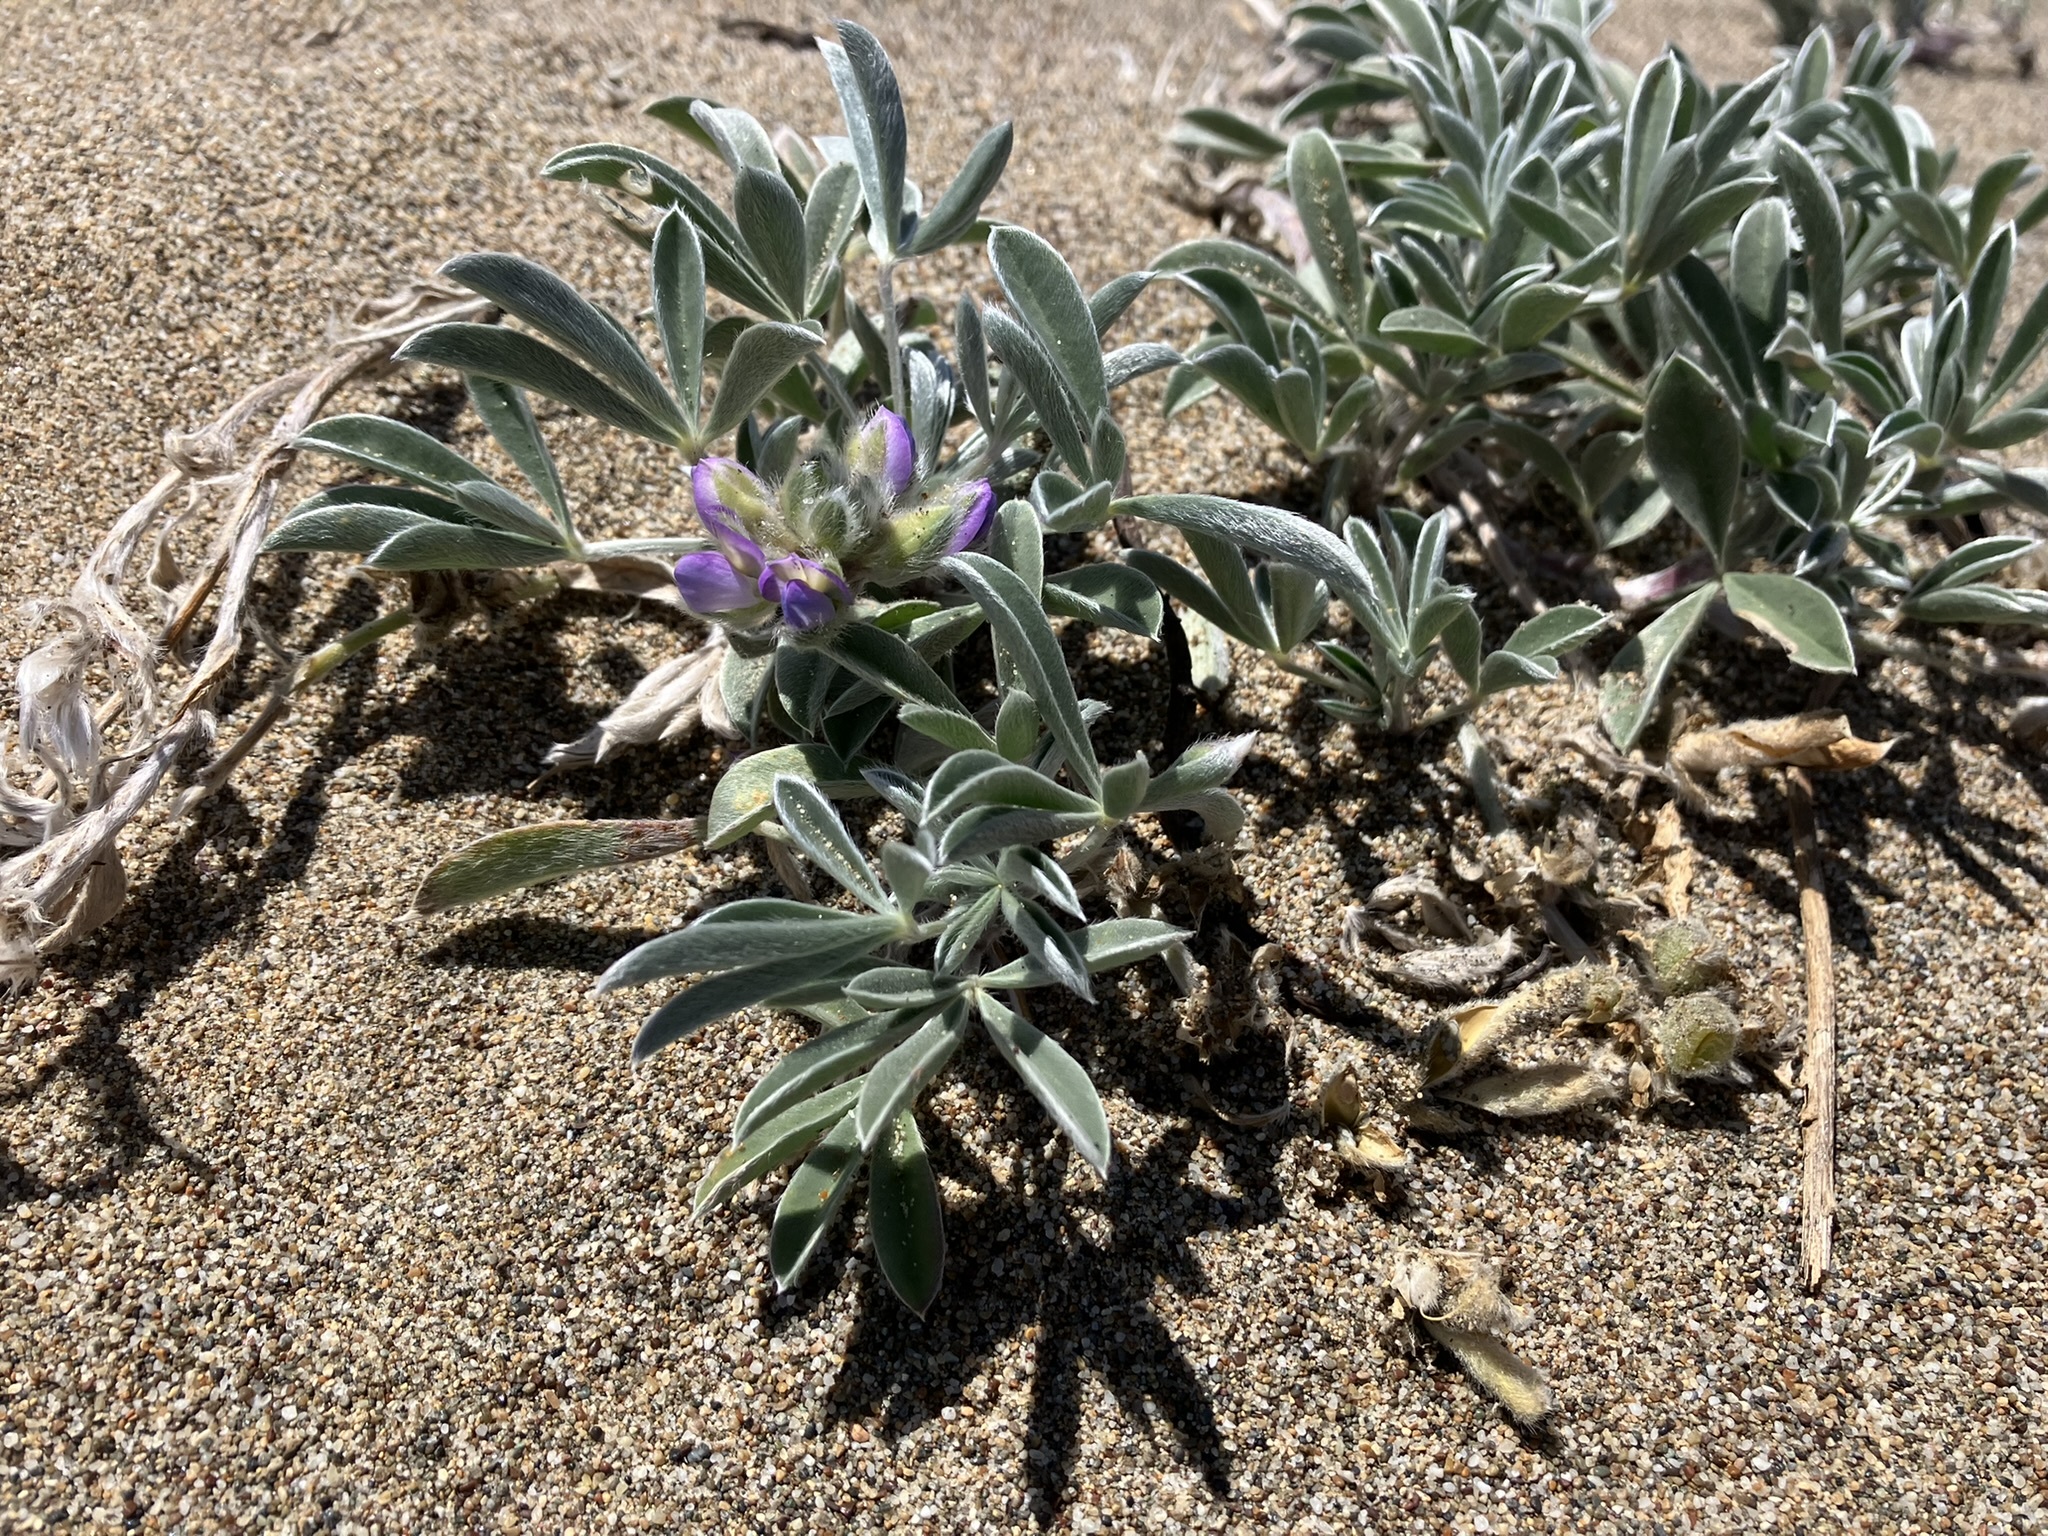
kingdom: Plantae
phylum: Tracheophyta
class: Magnoliopsida
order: Fabales
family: Fabaceae
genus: Lupinus
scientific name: Lupinus tidestromii
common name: Clover lupine
